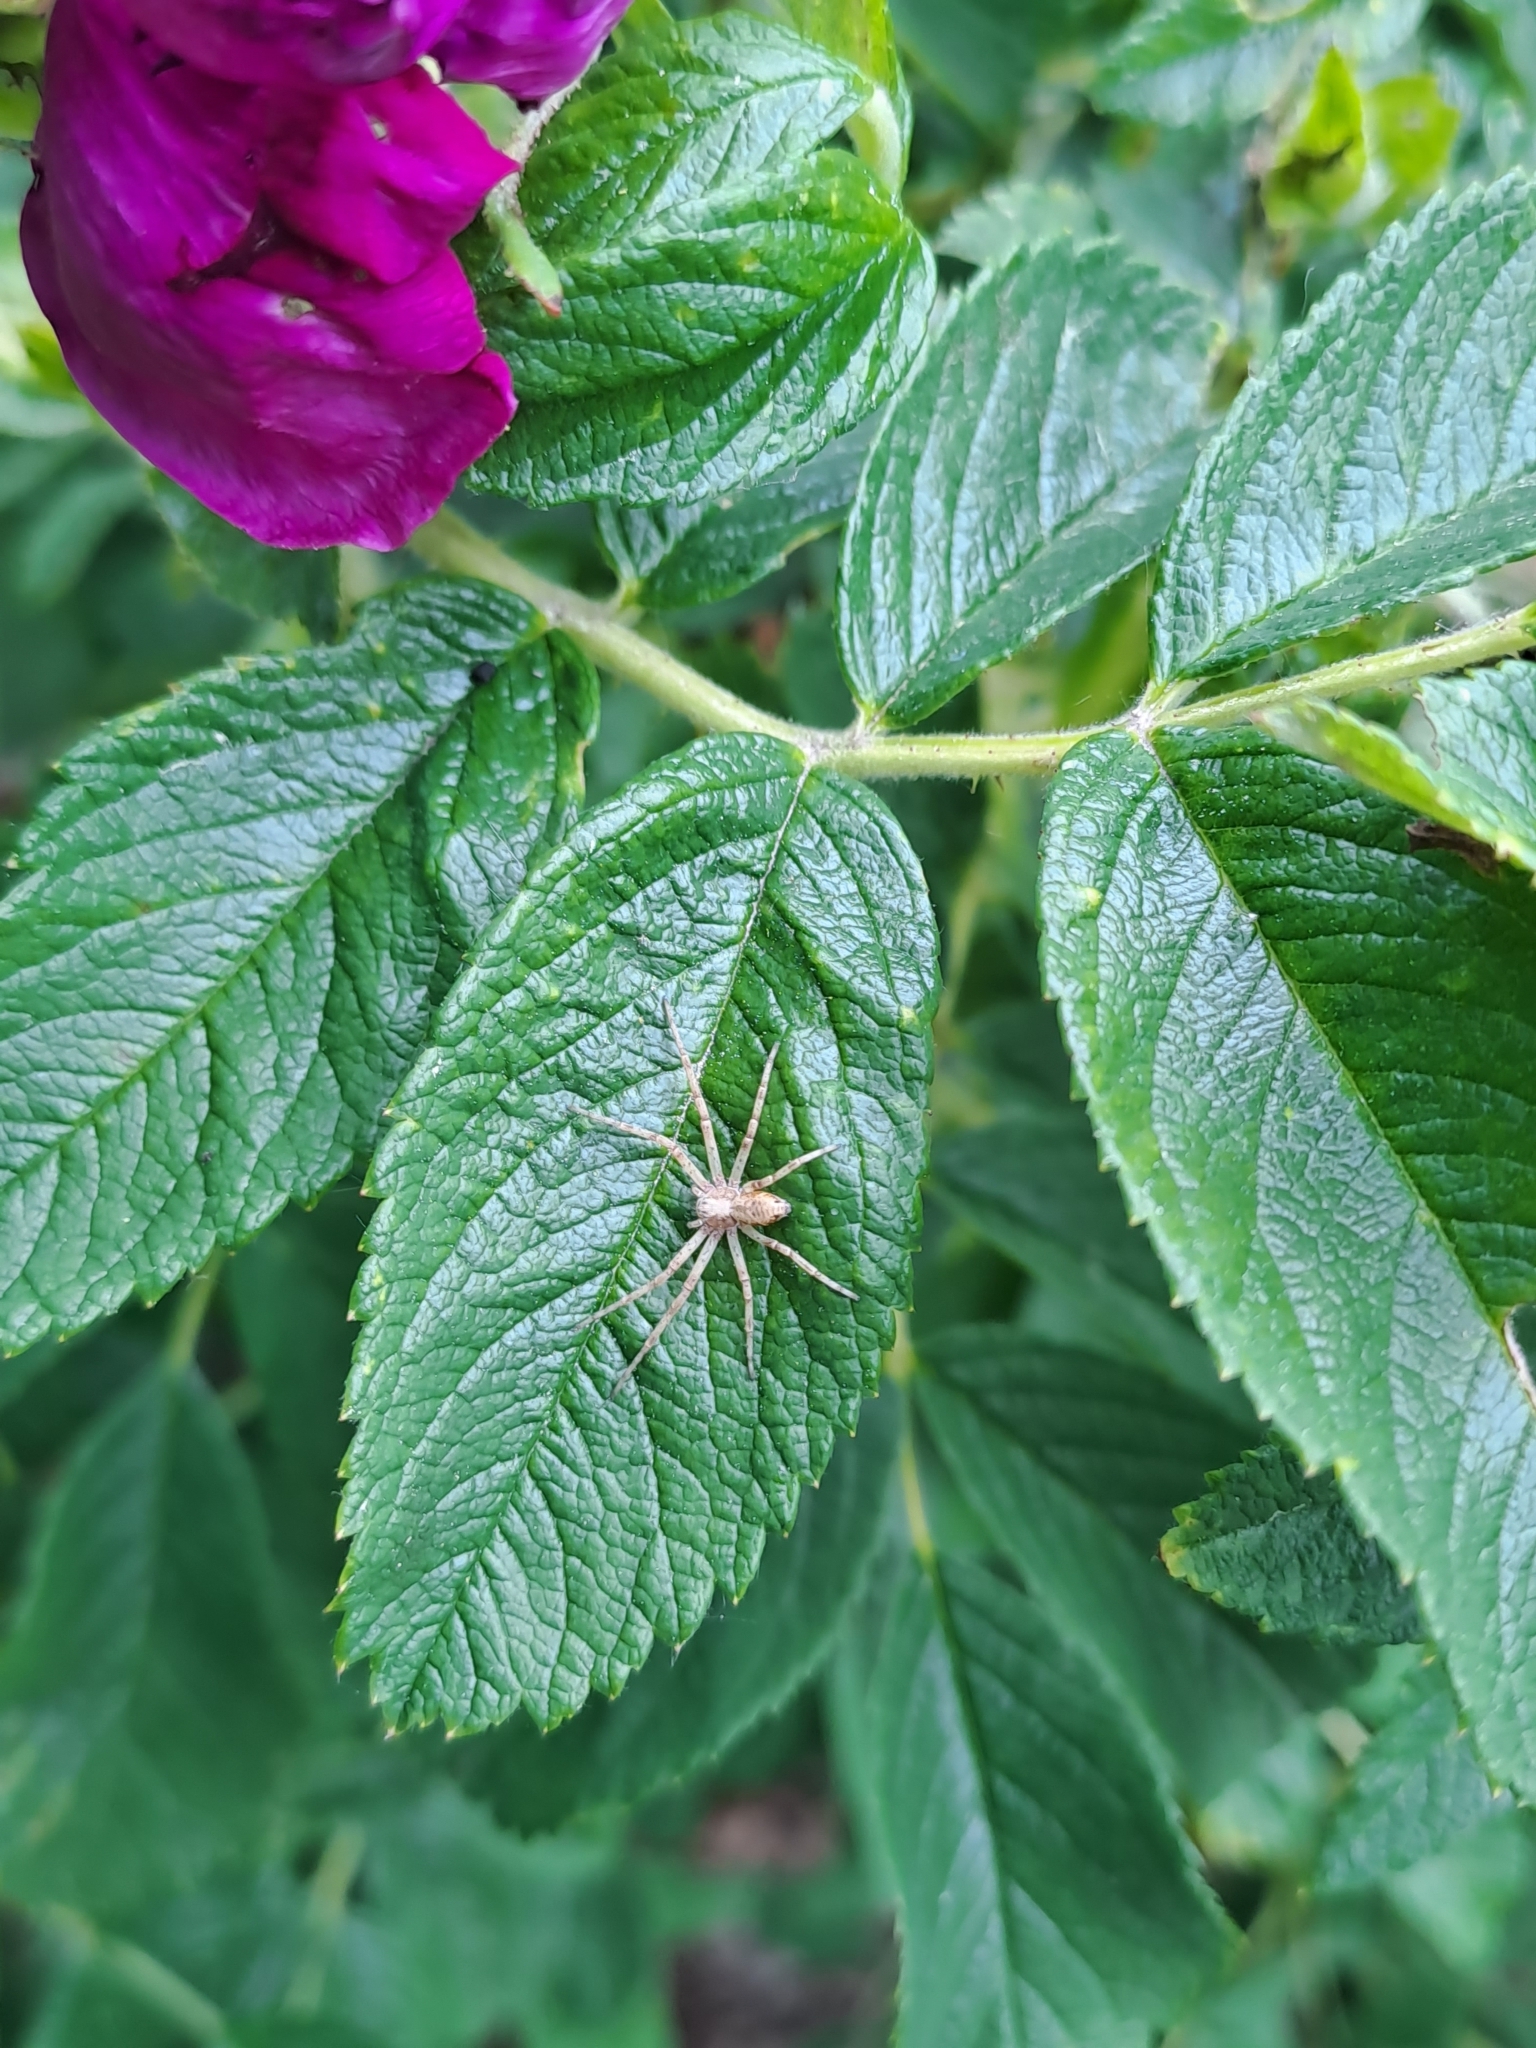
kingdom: Animalia
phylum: Arthropoda
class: Arachnida
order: Araneae
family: Philodromidae
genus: Philodromus
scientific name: Philodromus
